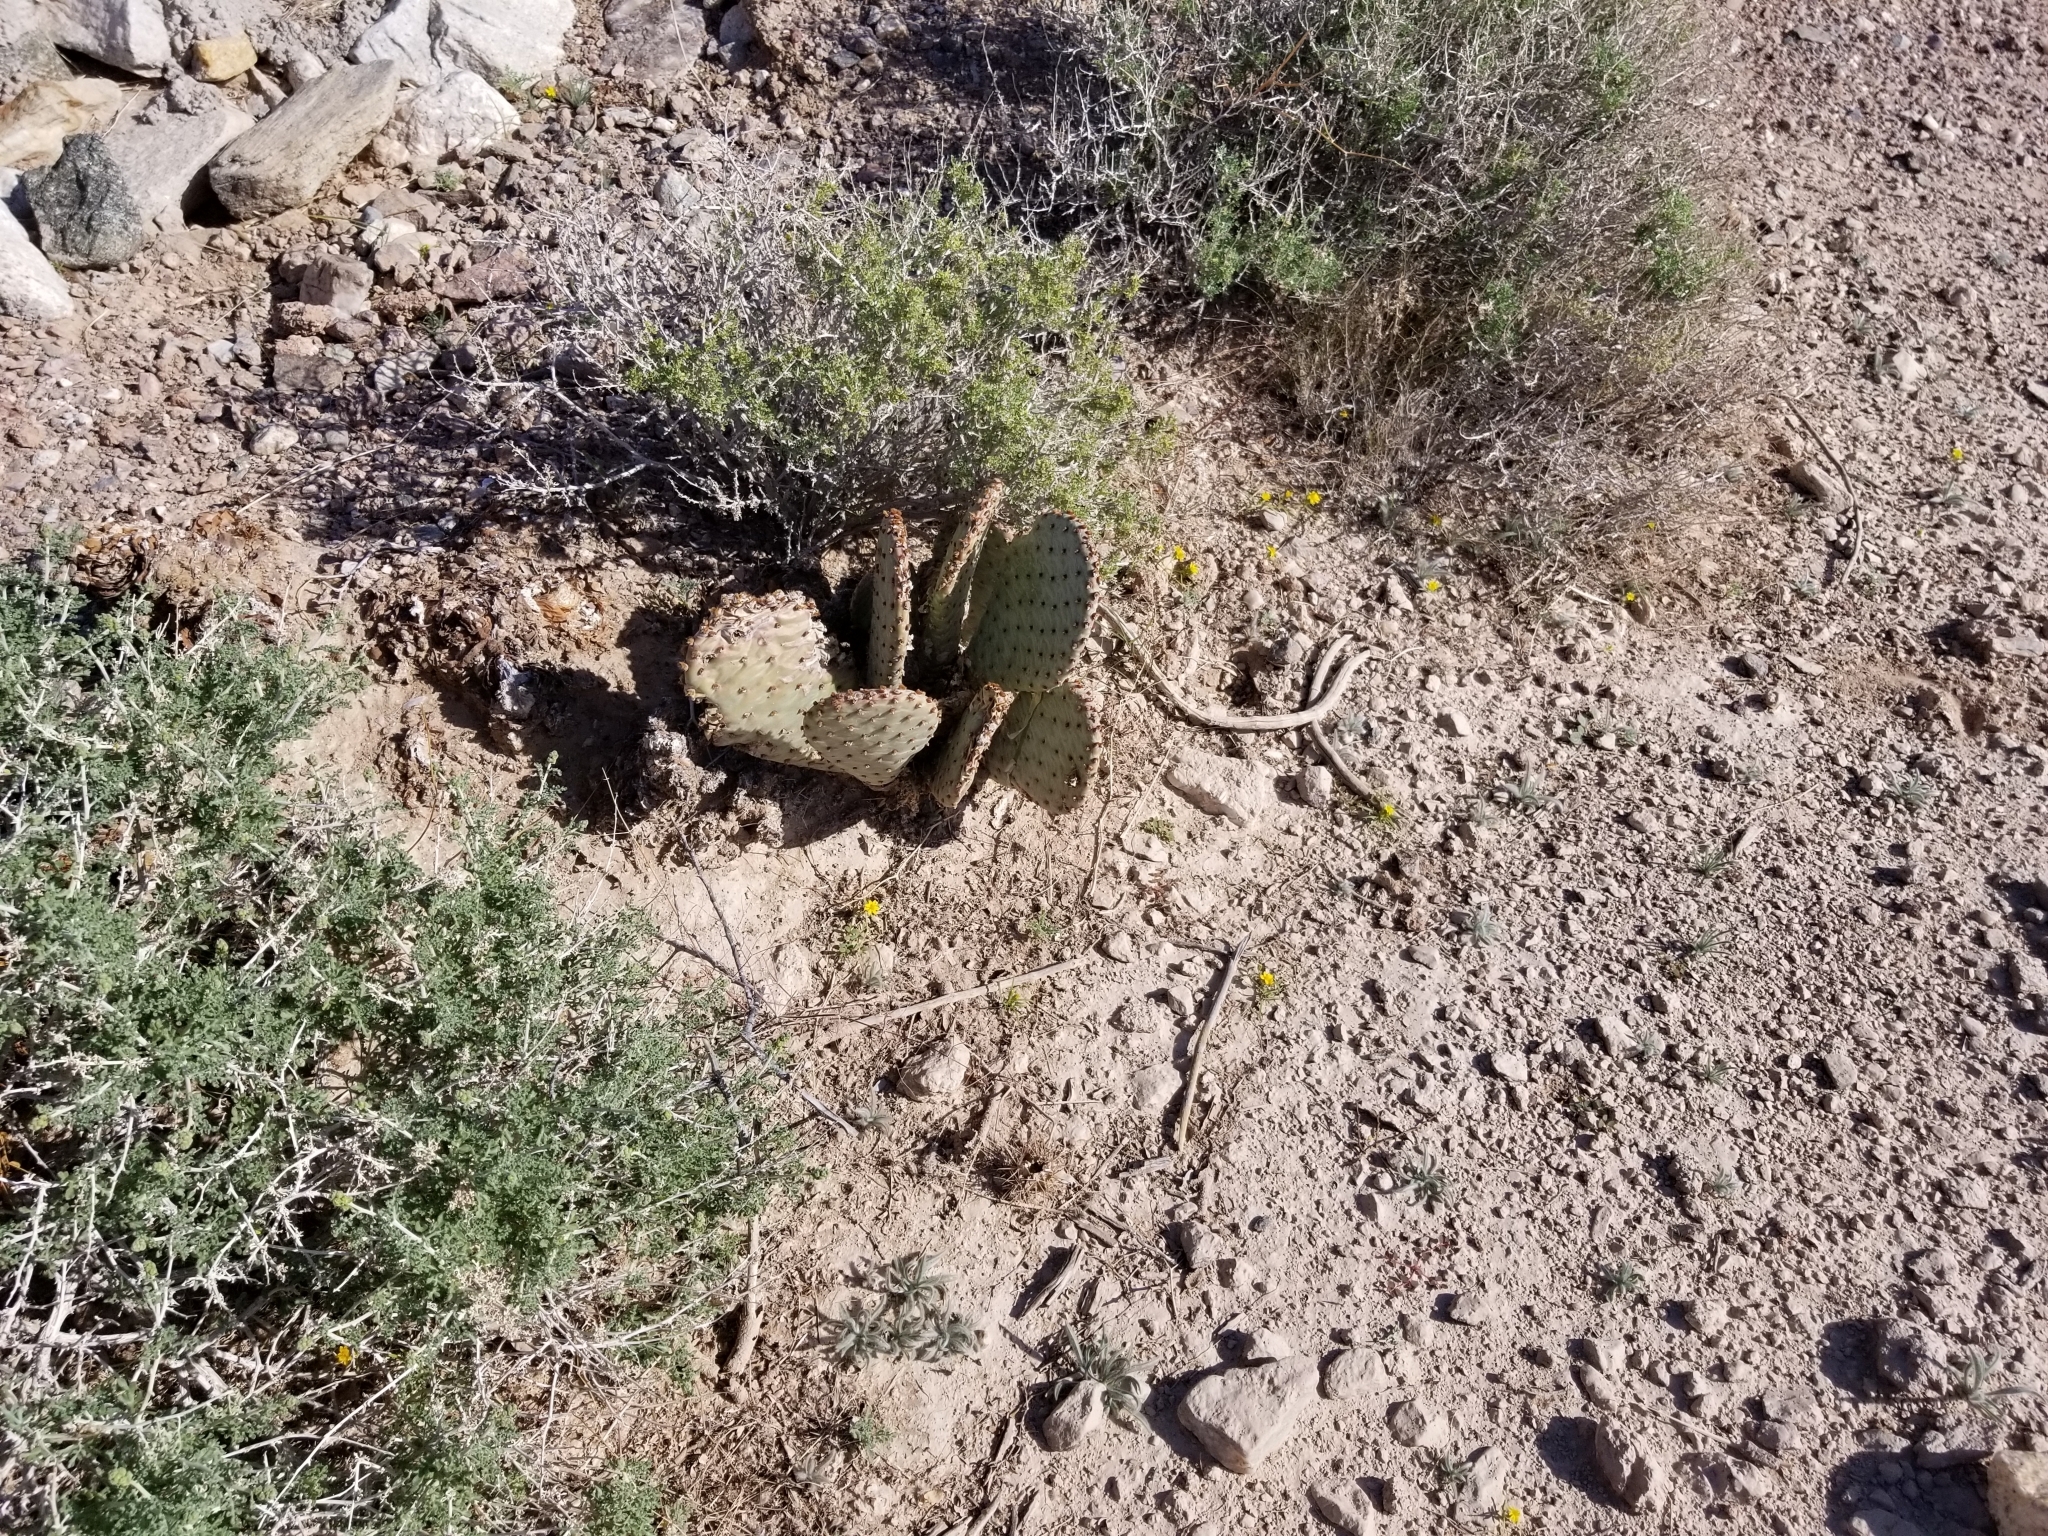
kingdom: Plantae
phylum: Tracheophyta
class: Magnoliopsida
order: Caryophyllales
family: Cactaceae
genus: Opuntia
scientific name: Opuntia basilaris
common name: Beavertail prickly-pear
